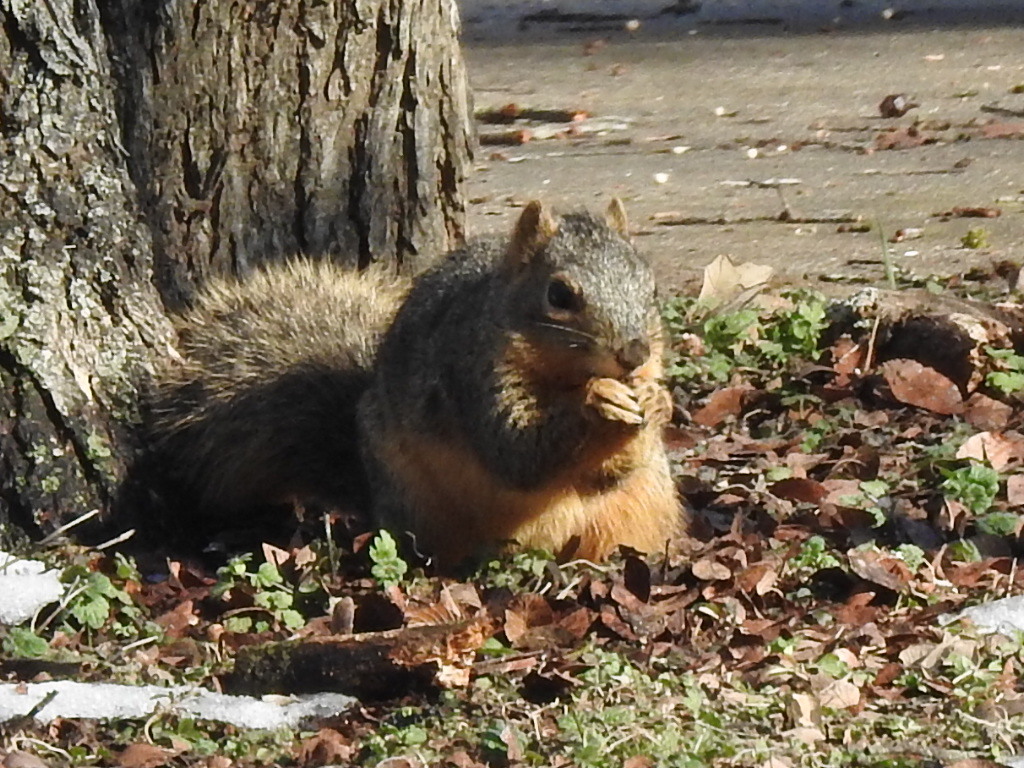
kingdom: Animalia
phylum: Chordata
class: Mammalia
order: Rodentia
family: Sciuridae
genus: Sciurus
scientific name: Sciurus niger
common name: Fox squirrel
